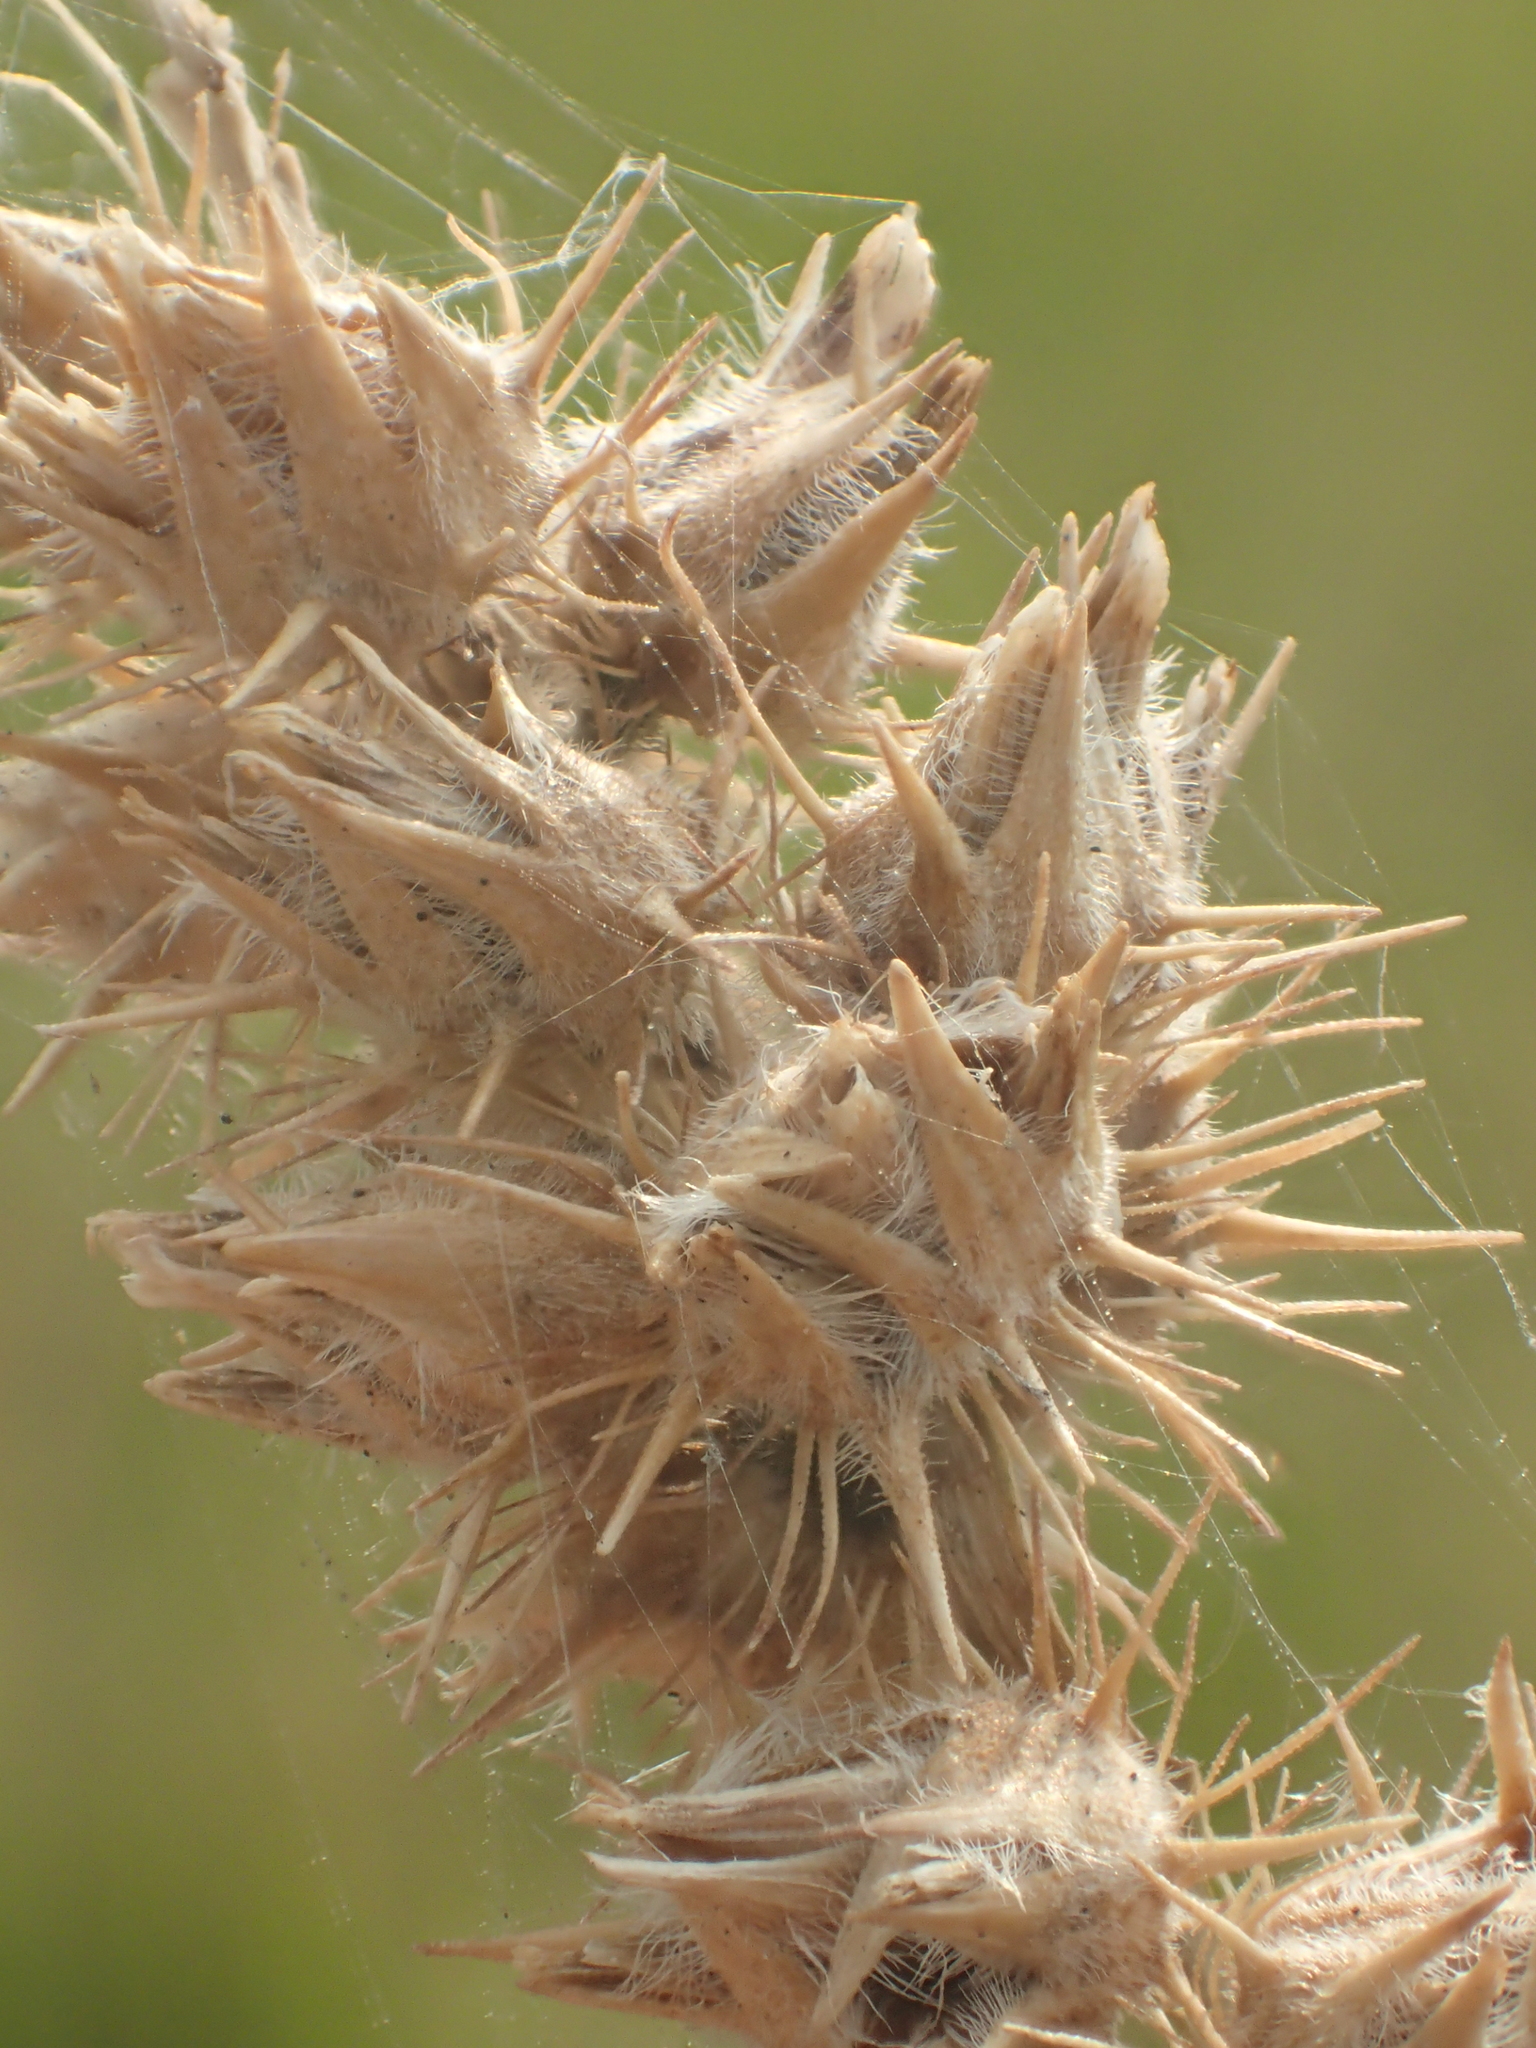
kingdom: Plantae
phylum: Tracheophyta
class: Liliopsida
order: Poales
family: Poaceae
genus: Cenchrus
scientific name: Cenchrus echinatus
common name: Southern sandbur
